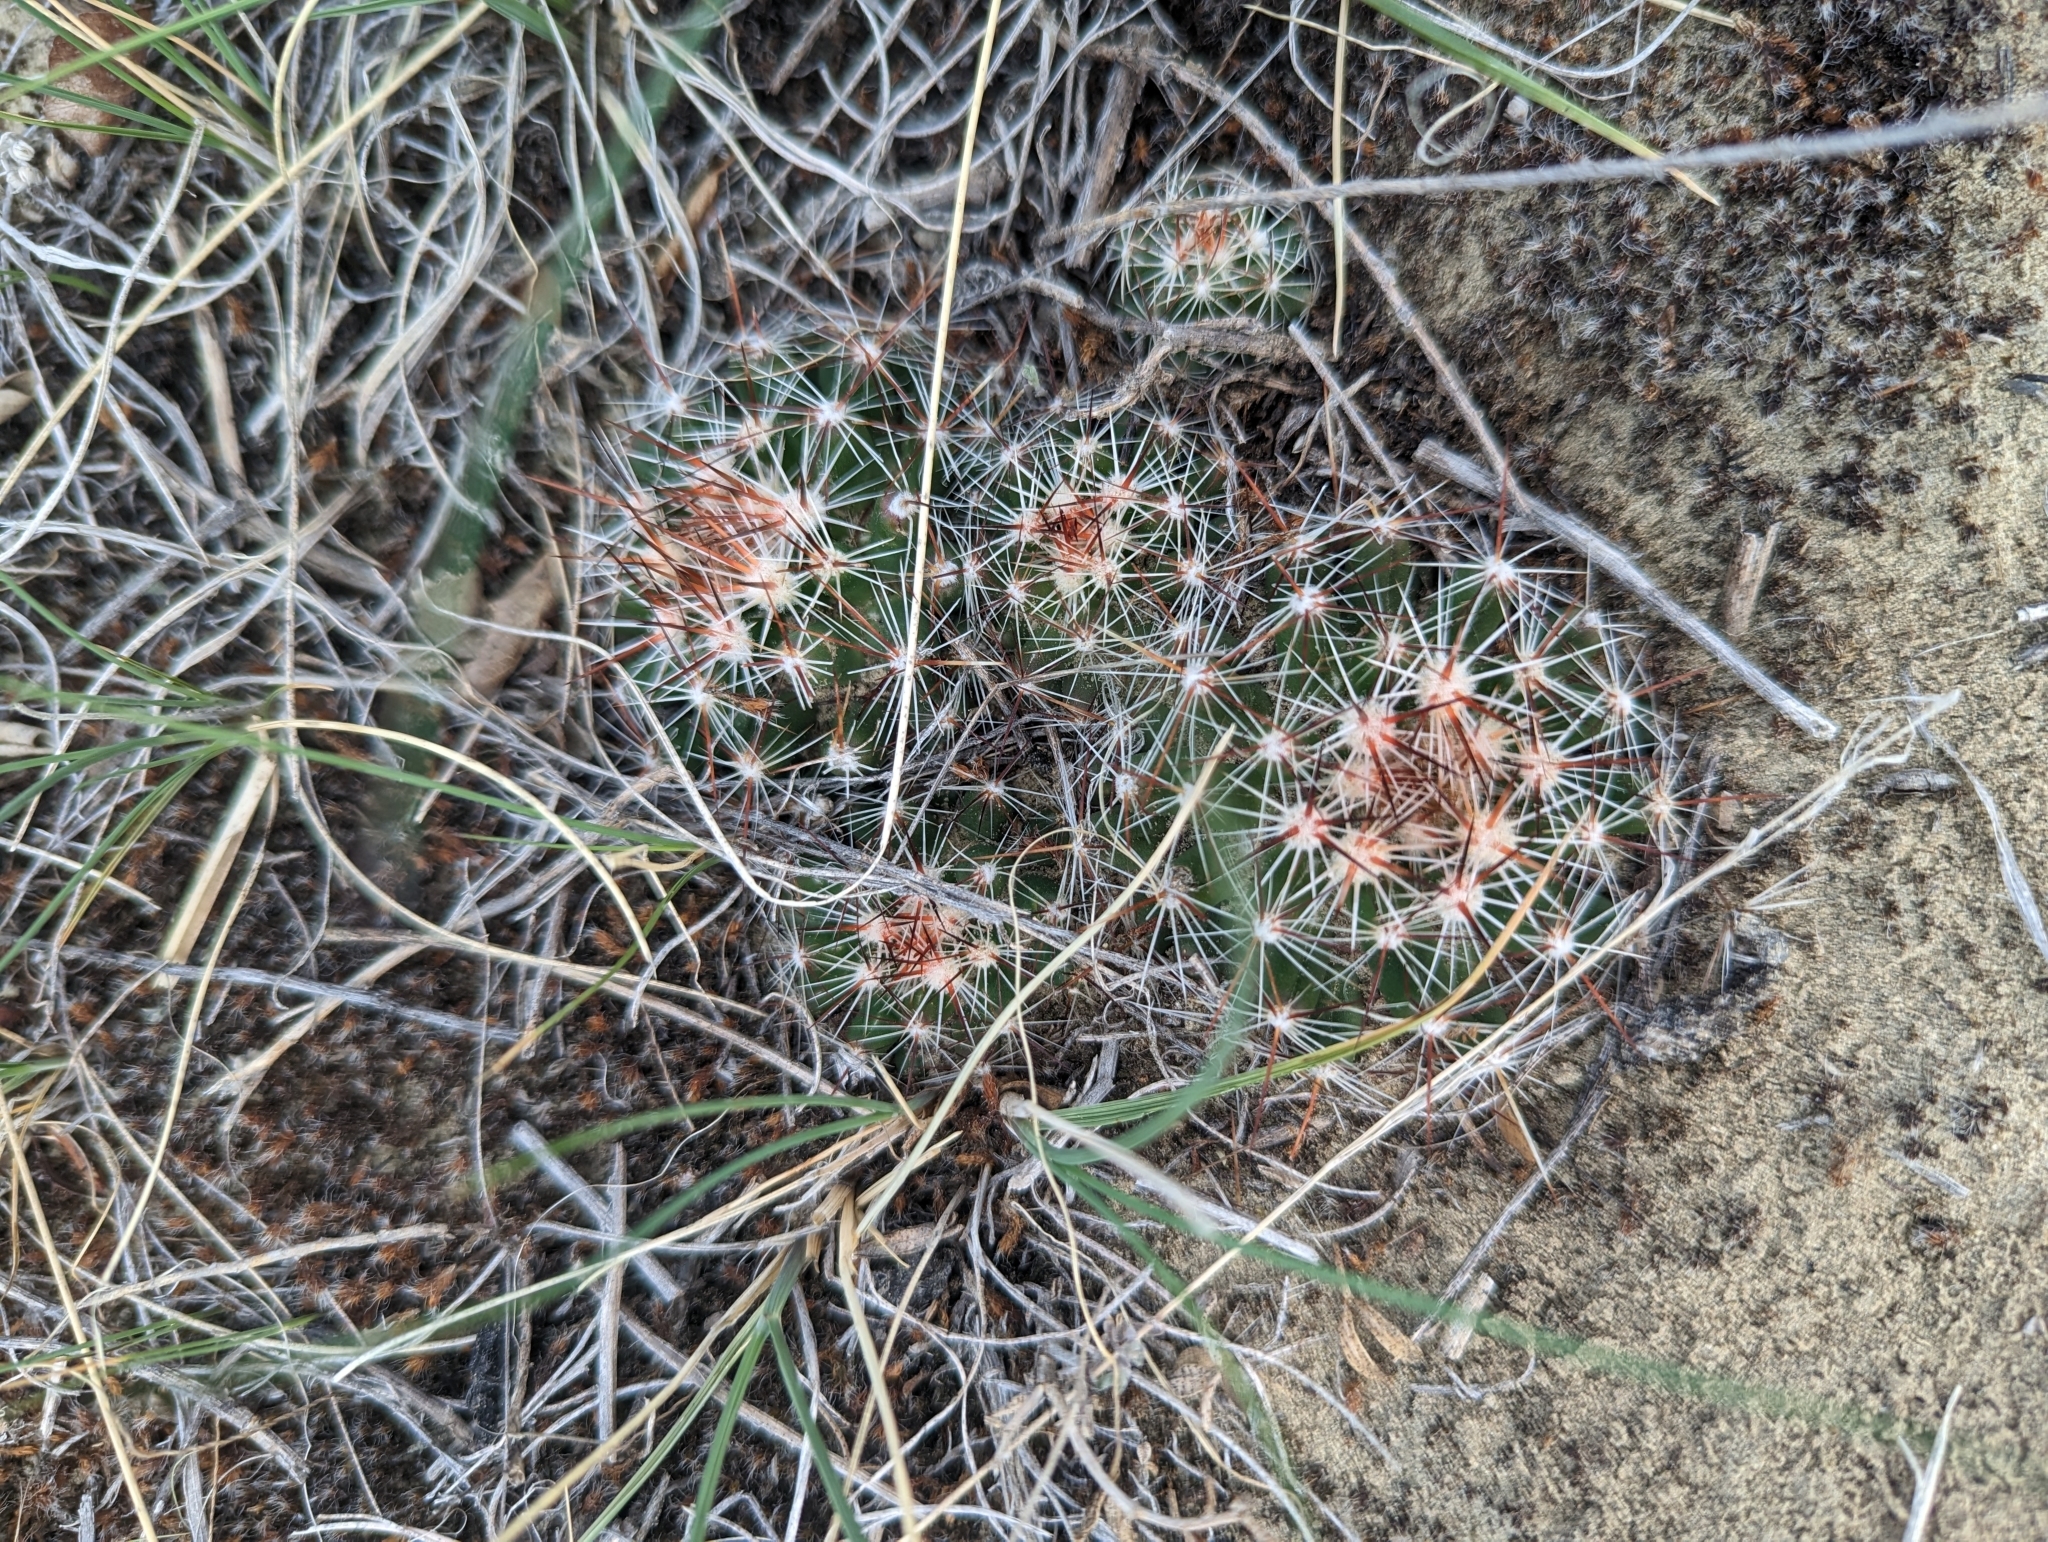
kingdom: Plantae
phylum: Tracheophyta
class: Magnoliopsida
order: Caryophyllales
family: Cactaceae
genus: Pelecyphora
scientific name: Pelecyphora vivipara
